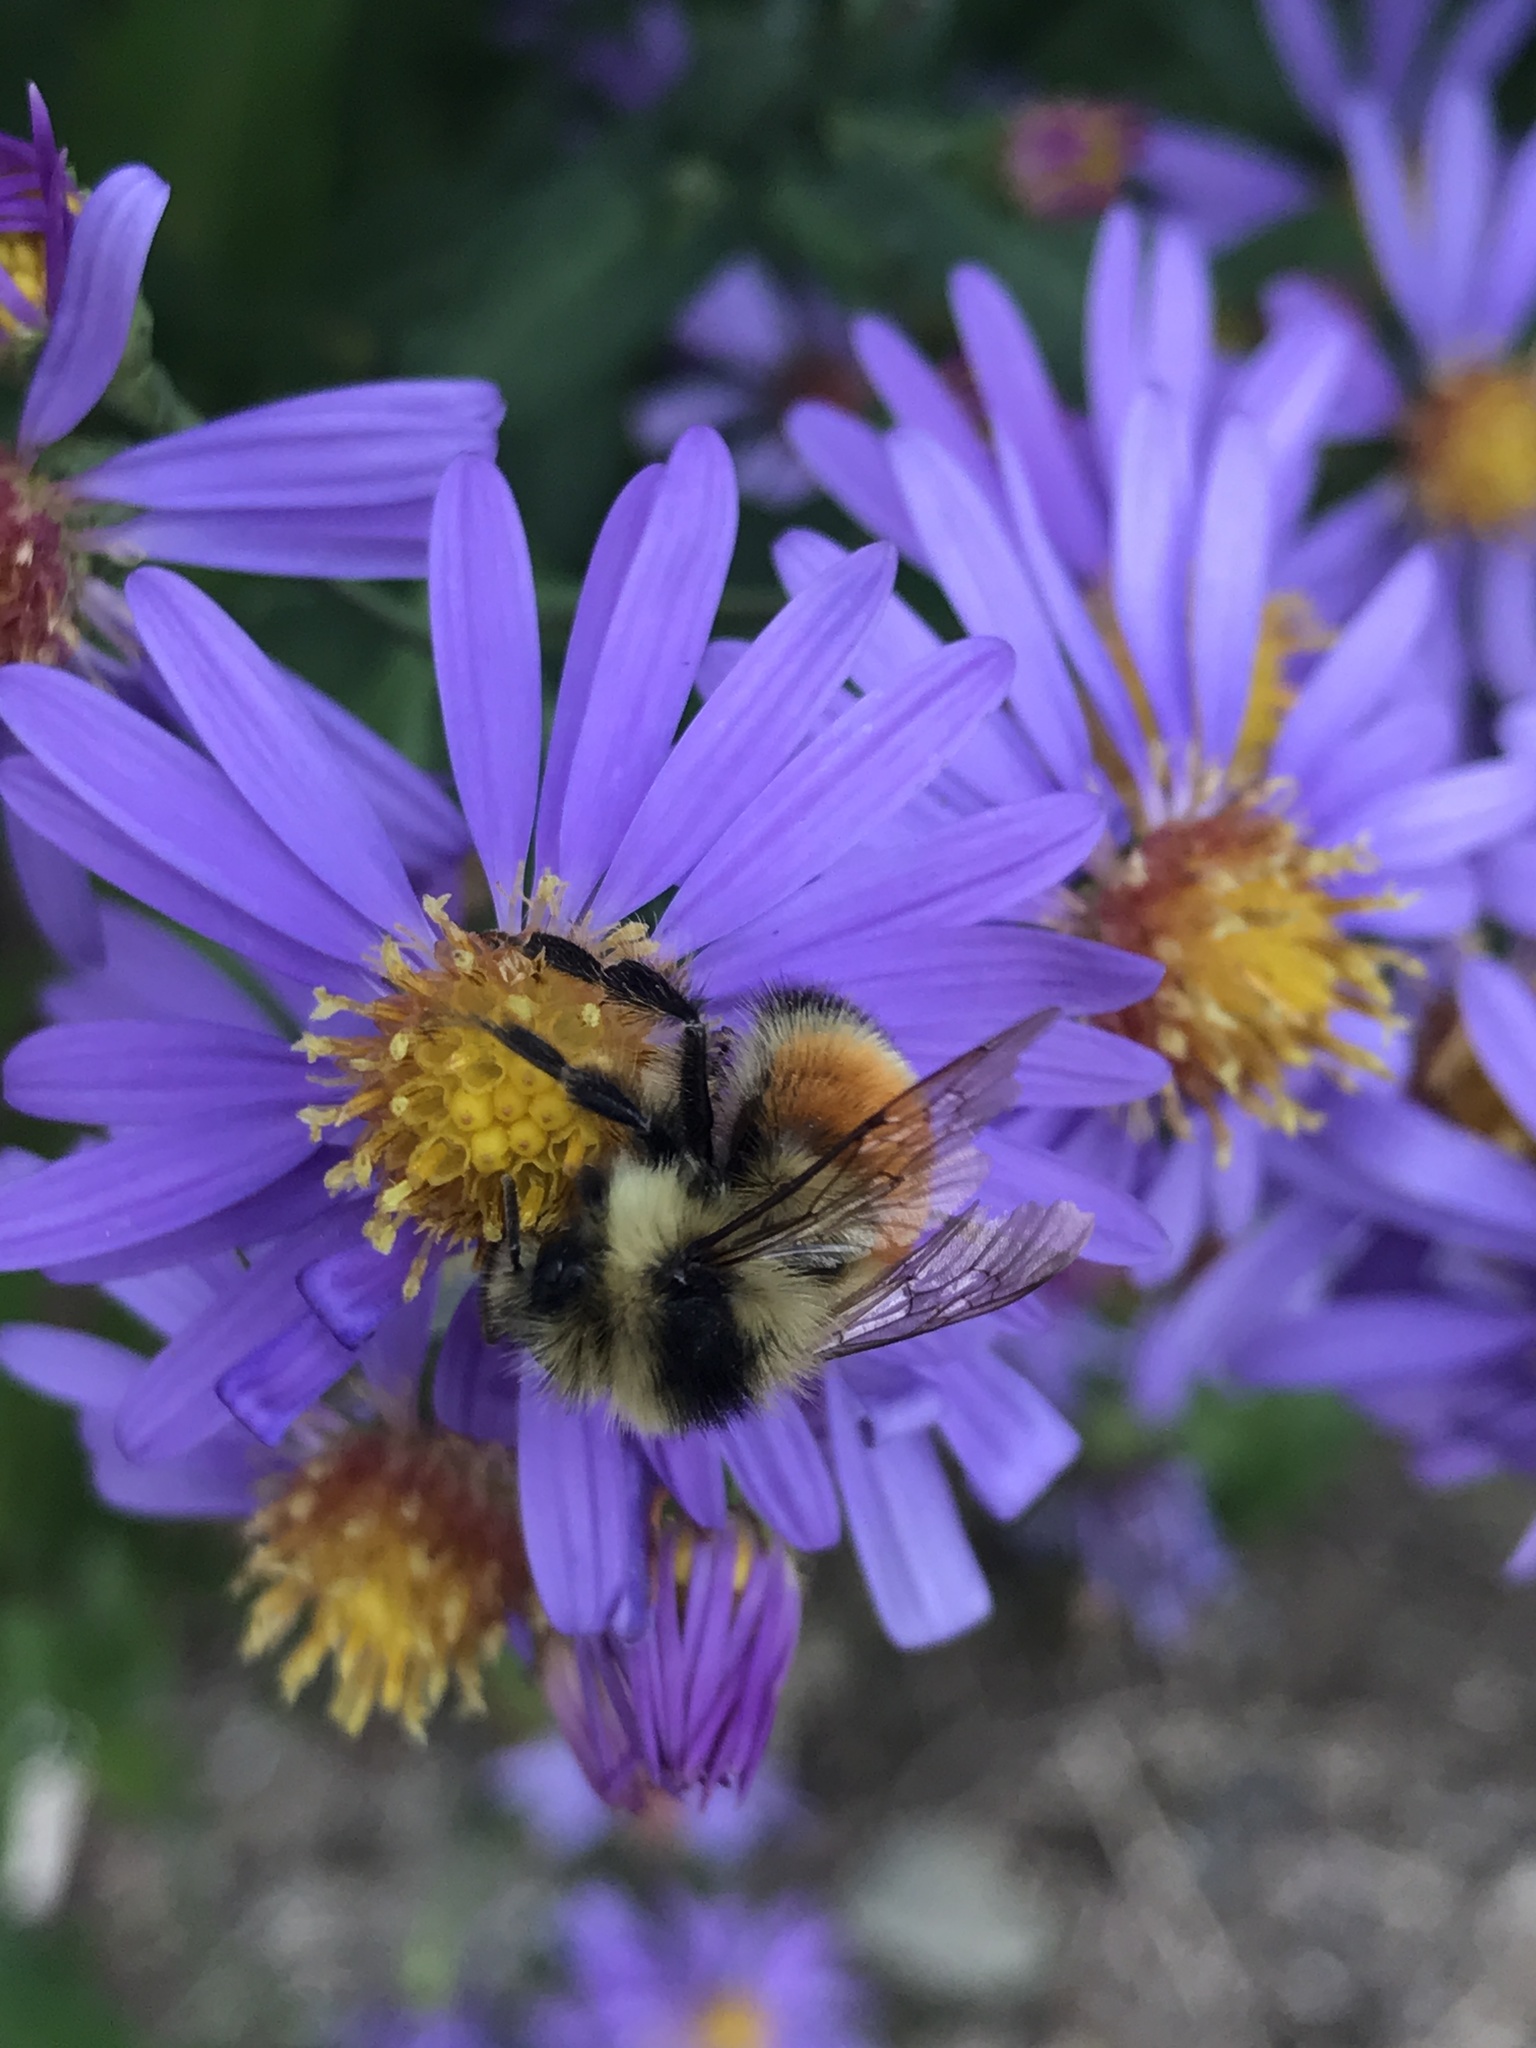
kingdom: Animalia
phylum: Arthropoda
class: Insecta
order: Hymenoptera
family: Apidae
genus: Bombus
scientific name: Bombus ternarius
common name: Tri-colored bumble bee
